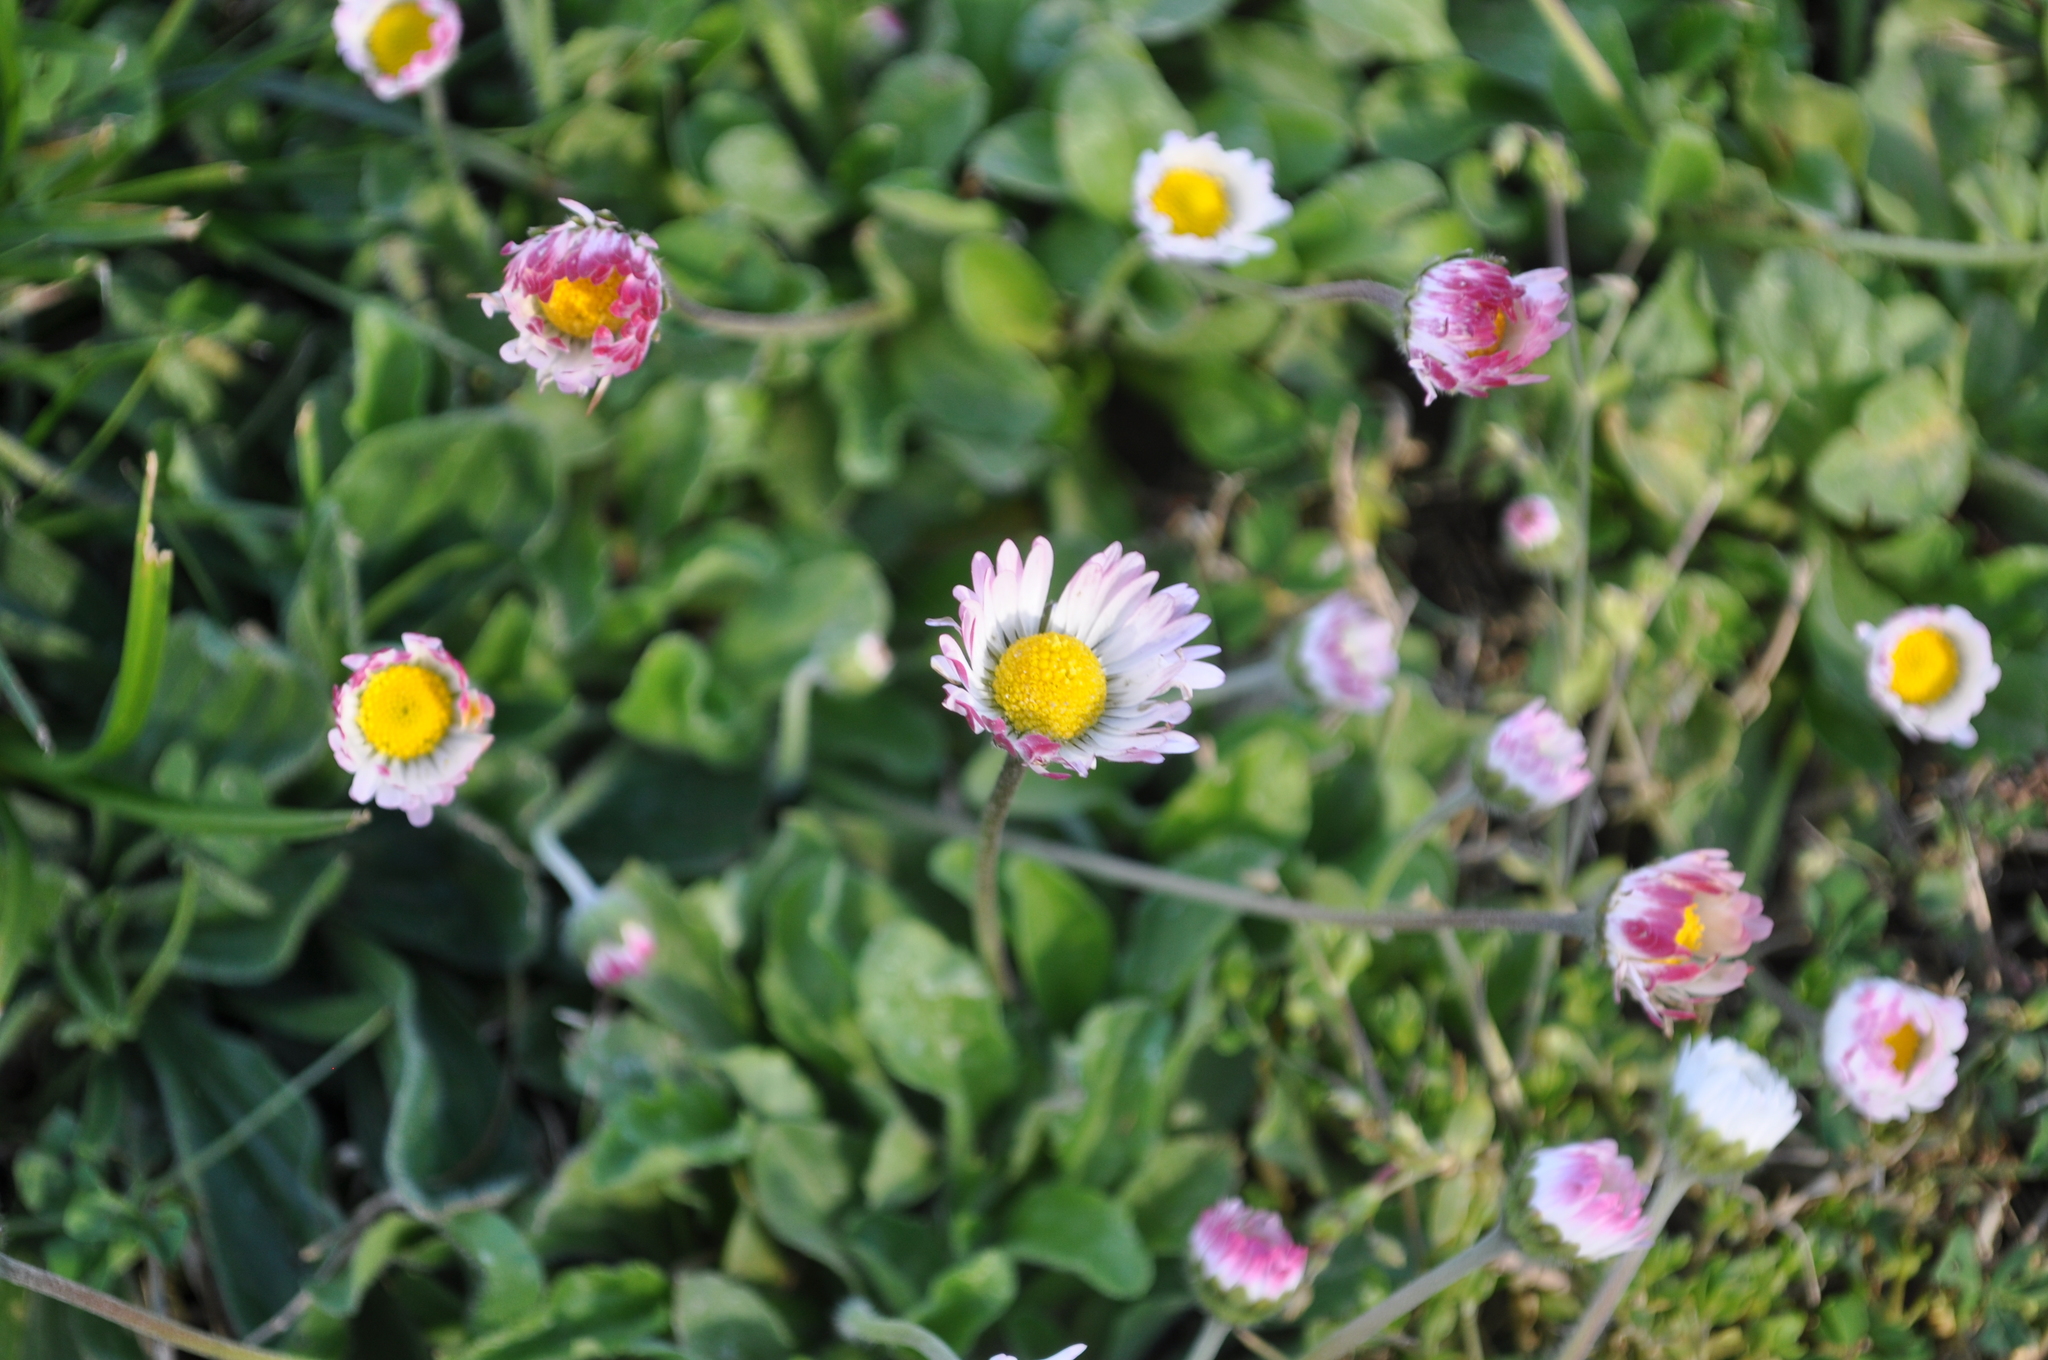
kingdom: Plantae
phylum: Tracheophyta
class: Magnoliopsida
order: Asterales
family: Asteraceae
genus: Bellis
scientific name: Bellis perennis
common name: Lawndaisy
